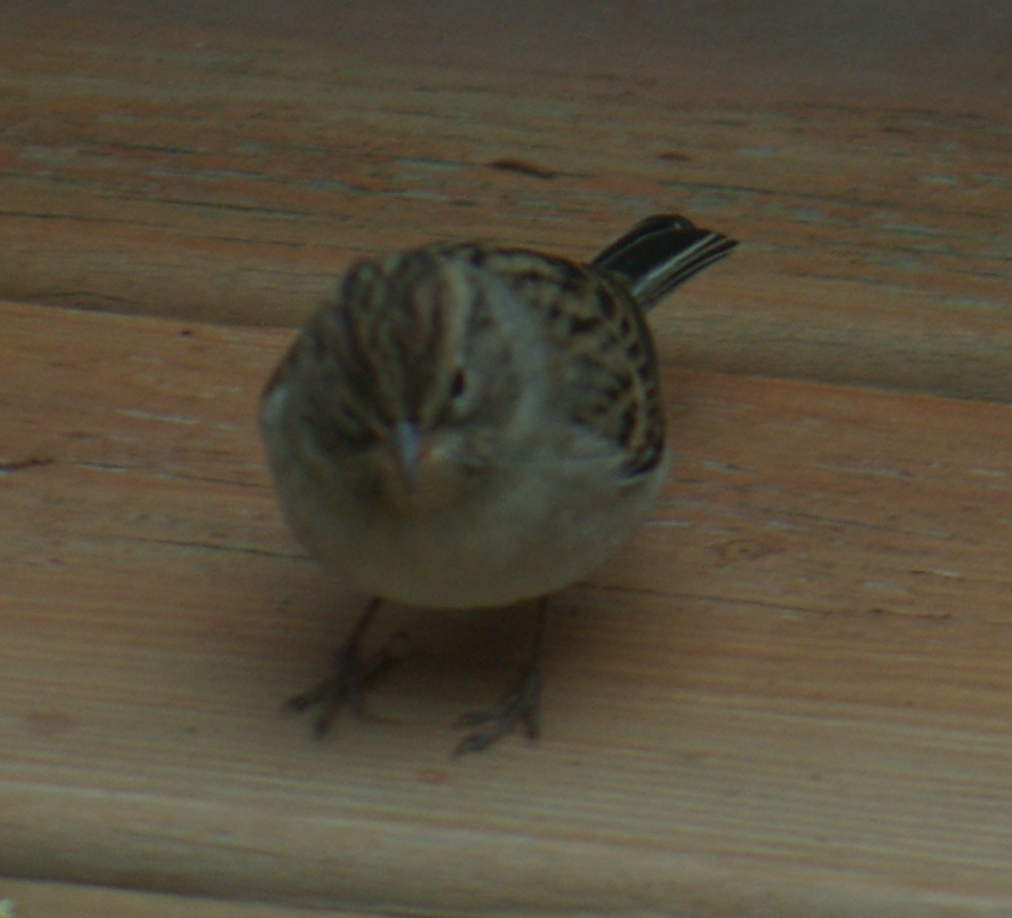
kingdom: Animalia
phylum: Chordata
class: Aves
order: Passeriformes
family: Passerellidae
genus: Spizella
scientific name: Spizella passerina
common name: Chipping sparrow
